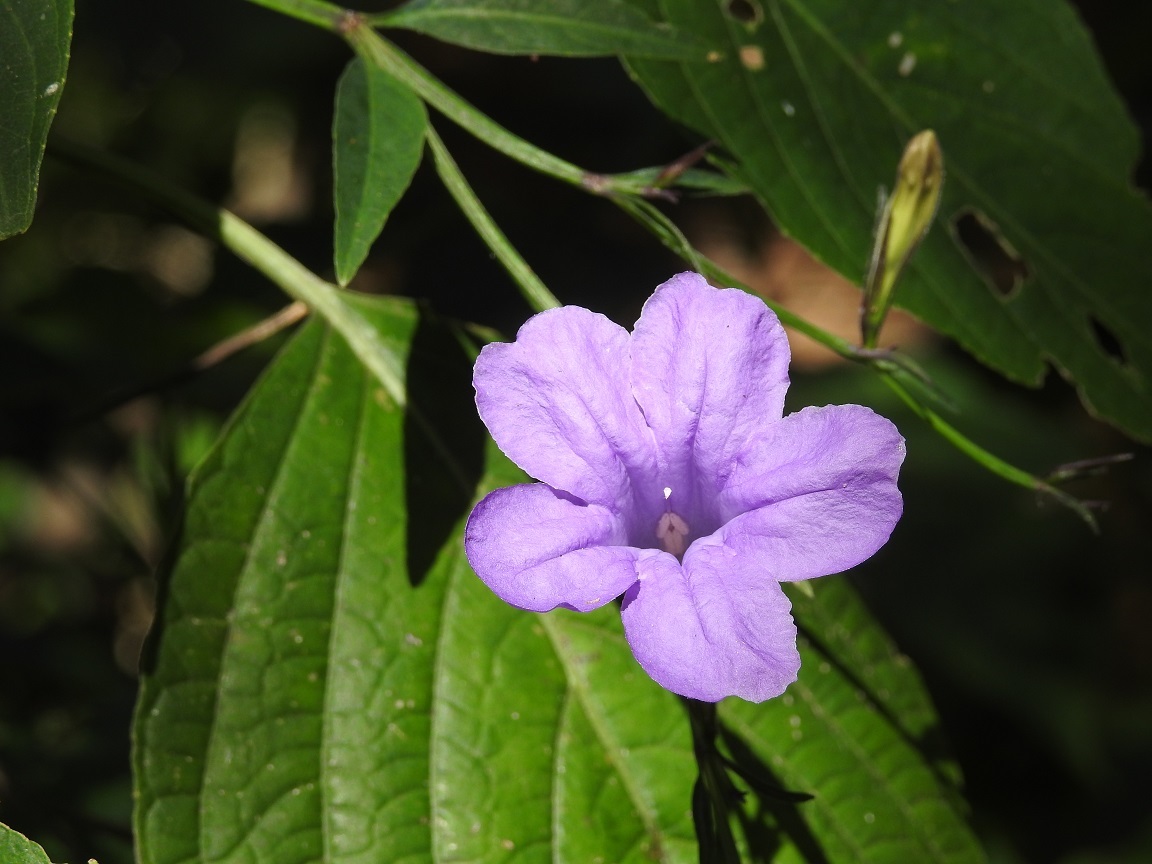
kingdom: Plantae
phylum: Tracheophyta
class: Magnoliopsida
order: Lamiales
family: Acanthaceae
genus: Ruellia
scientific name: Ruellia breedlovei
